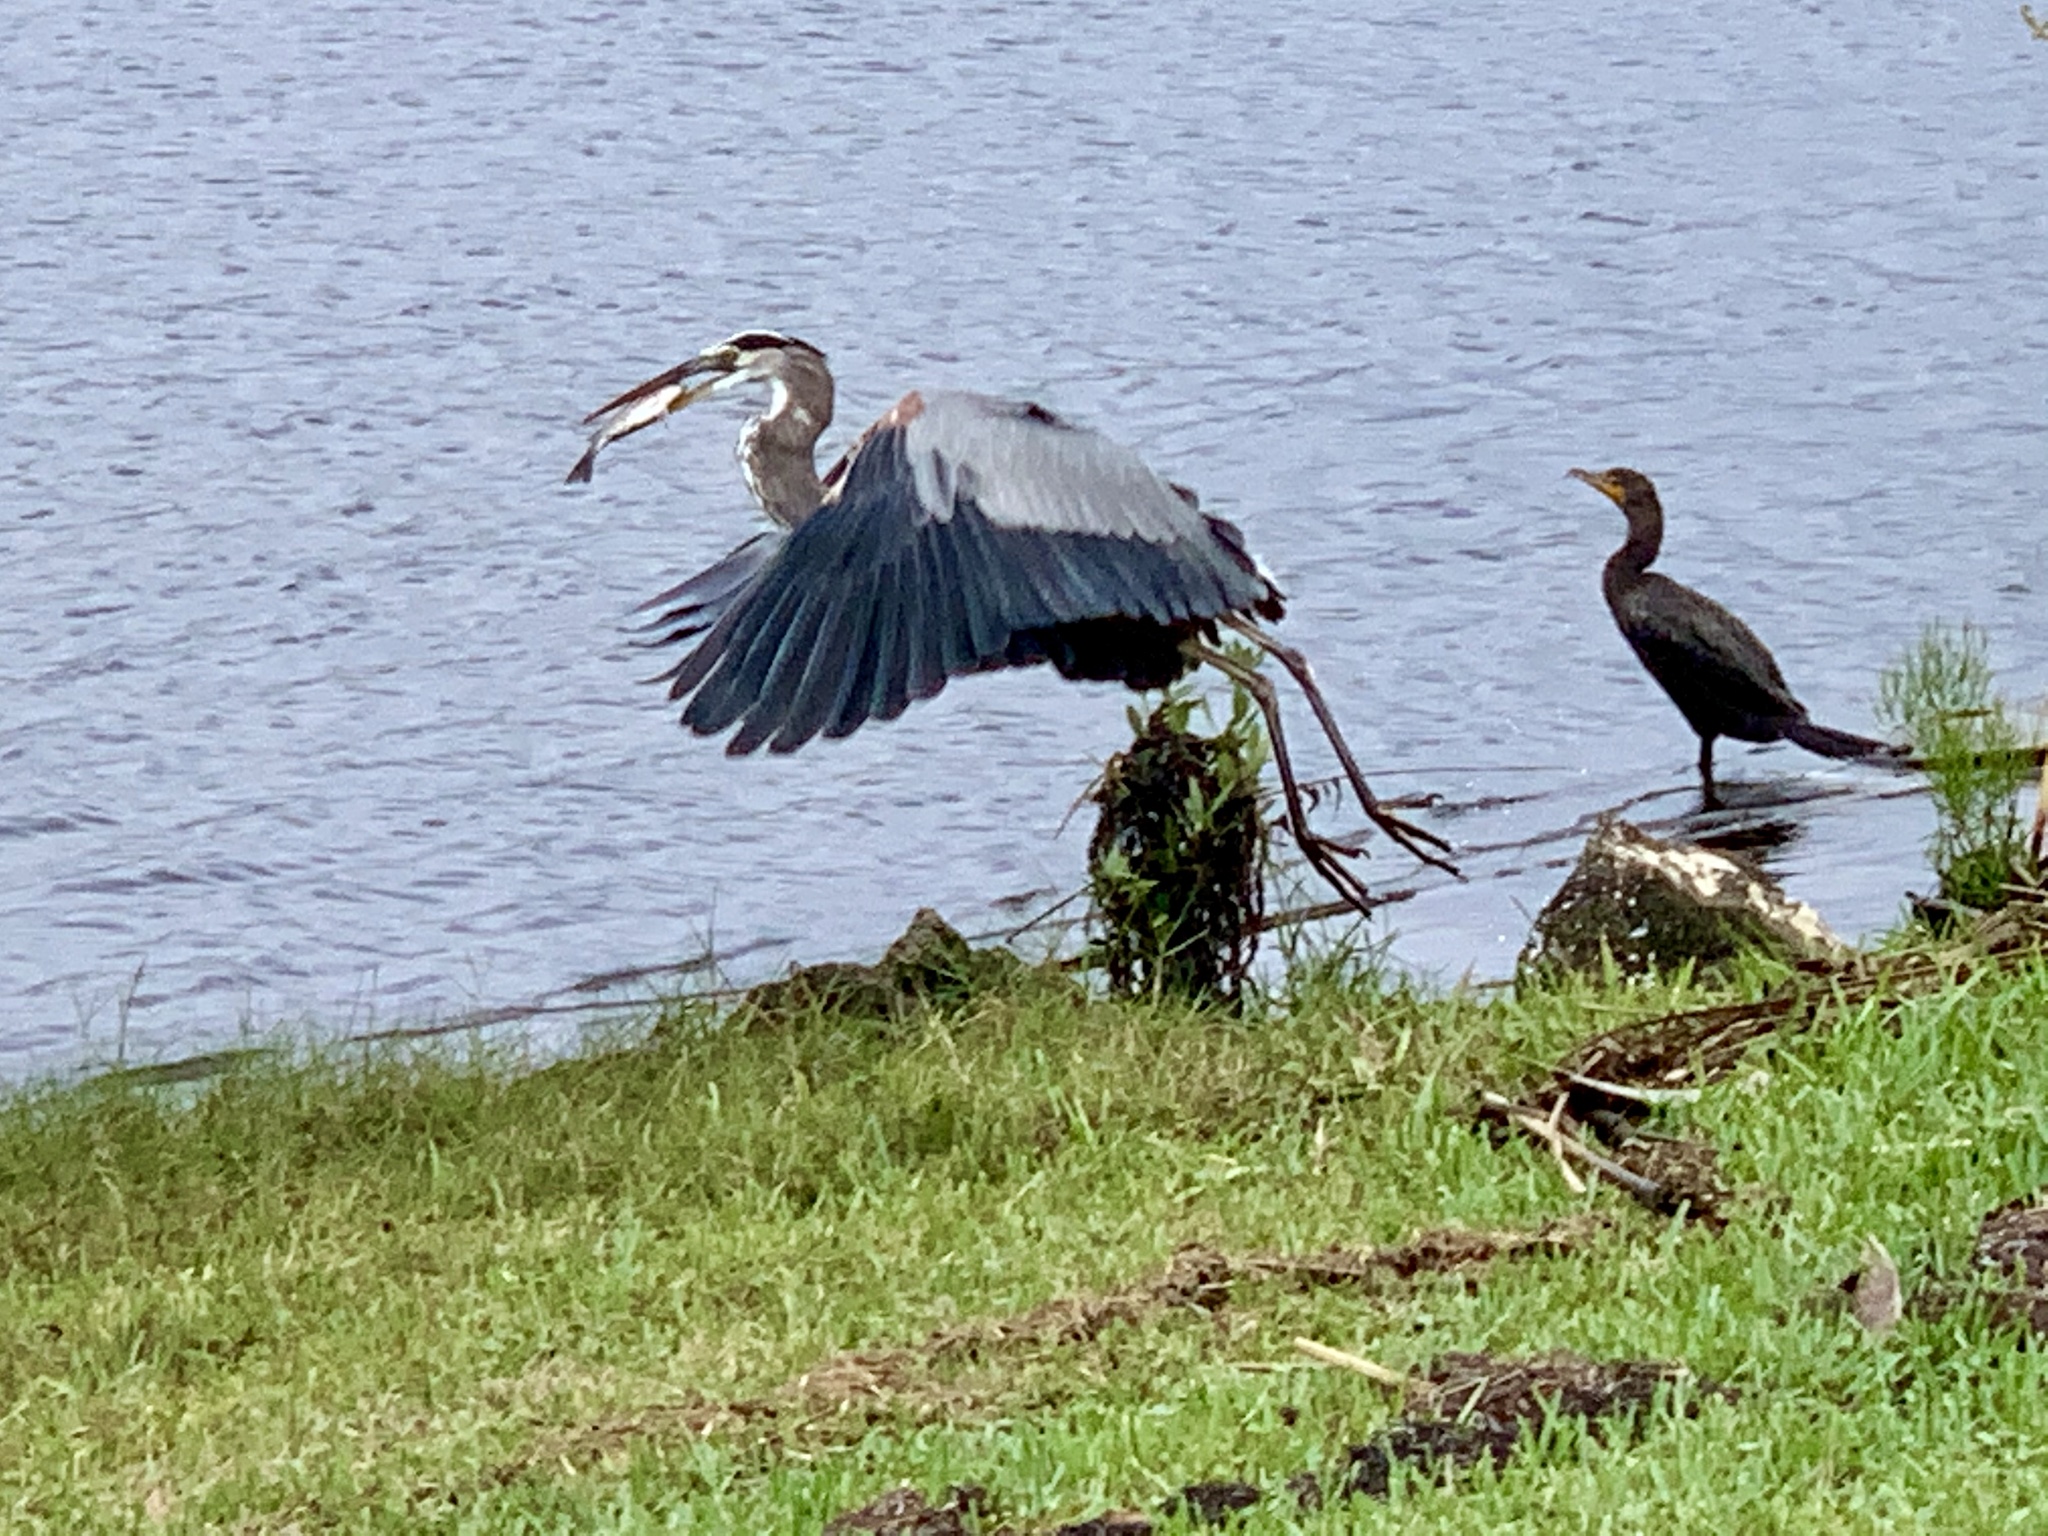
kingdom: Animalia
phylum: Chordata
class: Aves
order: Pelecaniformes
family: Ardeidae
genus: Ardea
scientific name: Ardea herodias
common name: Great blue heron
